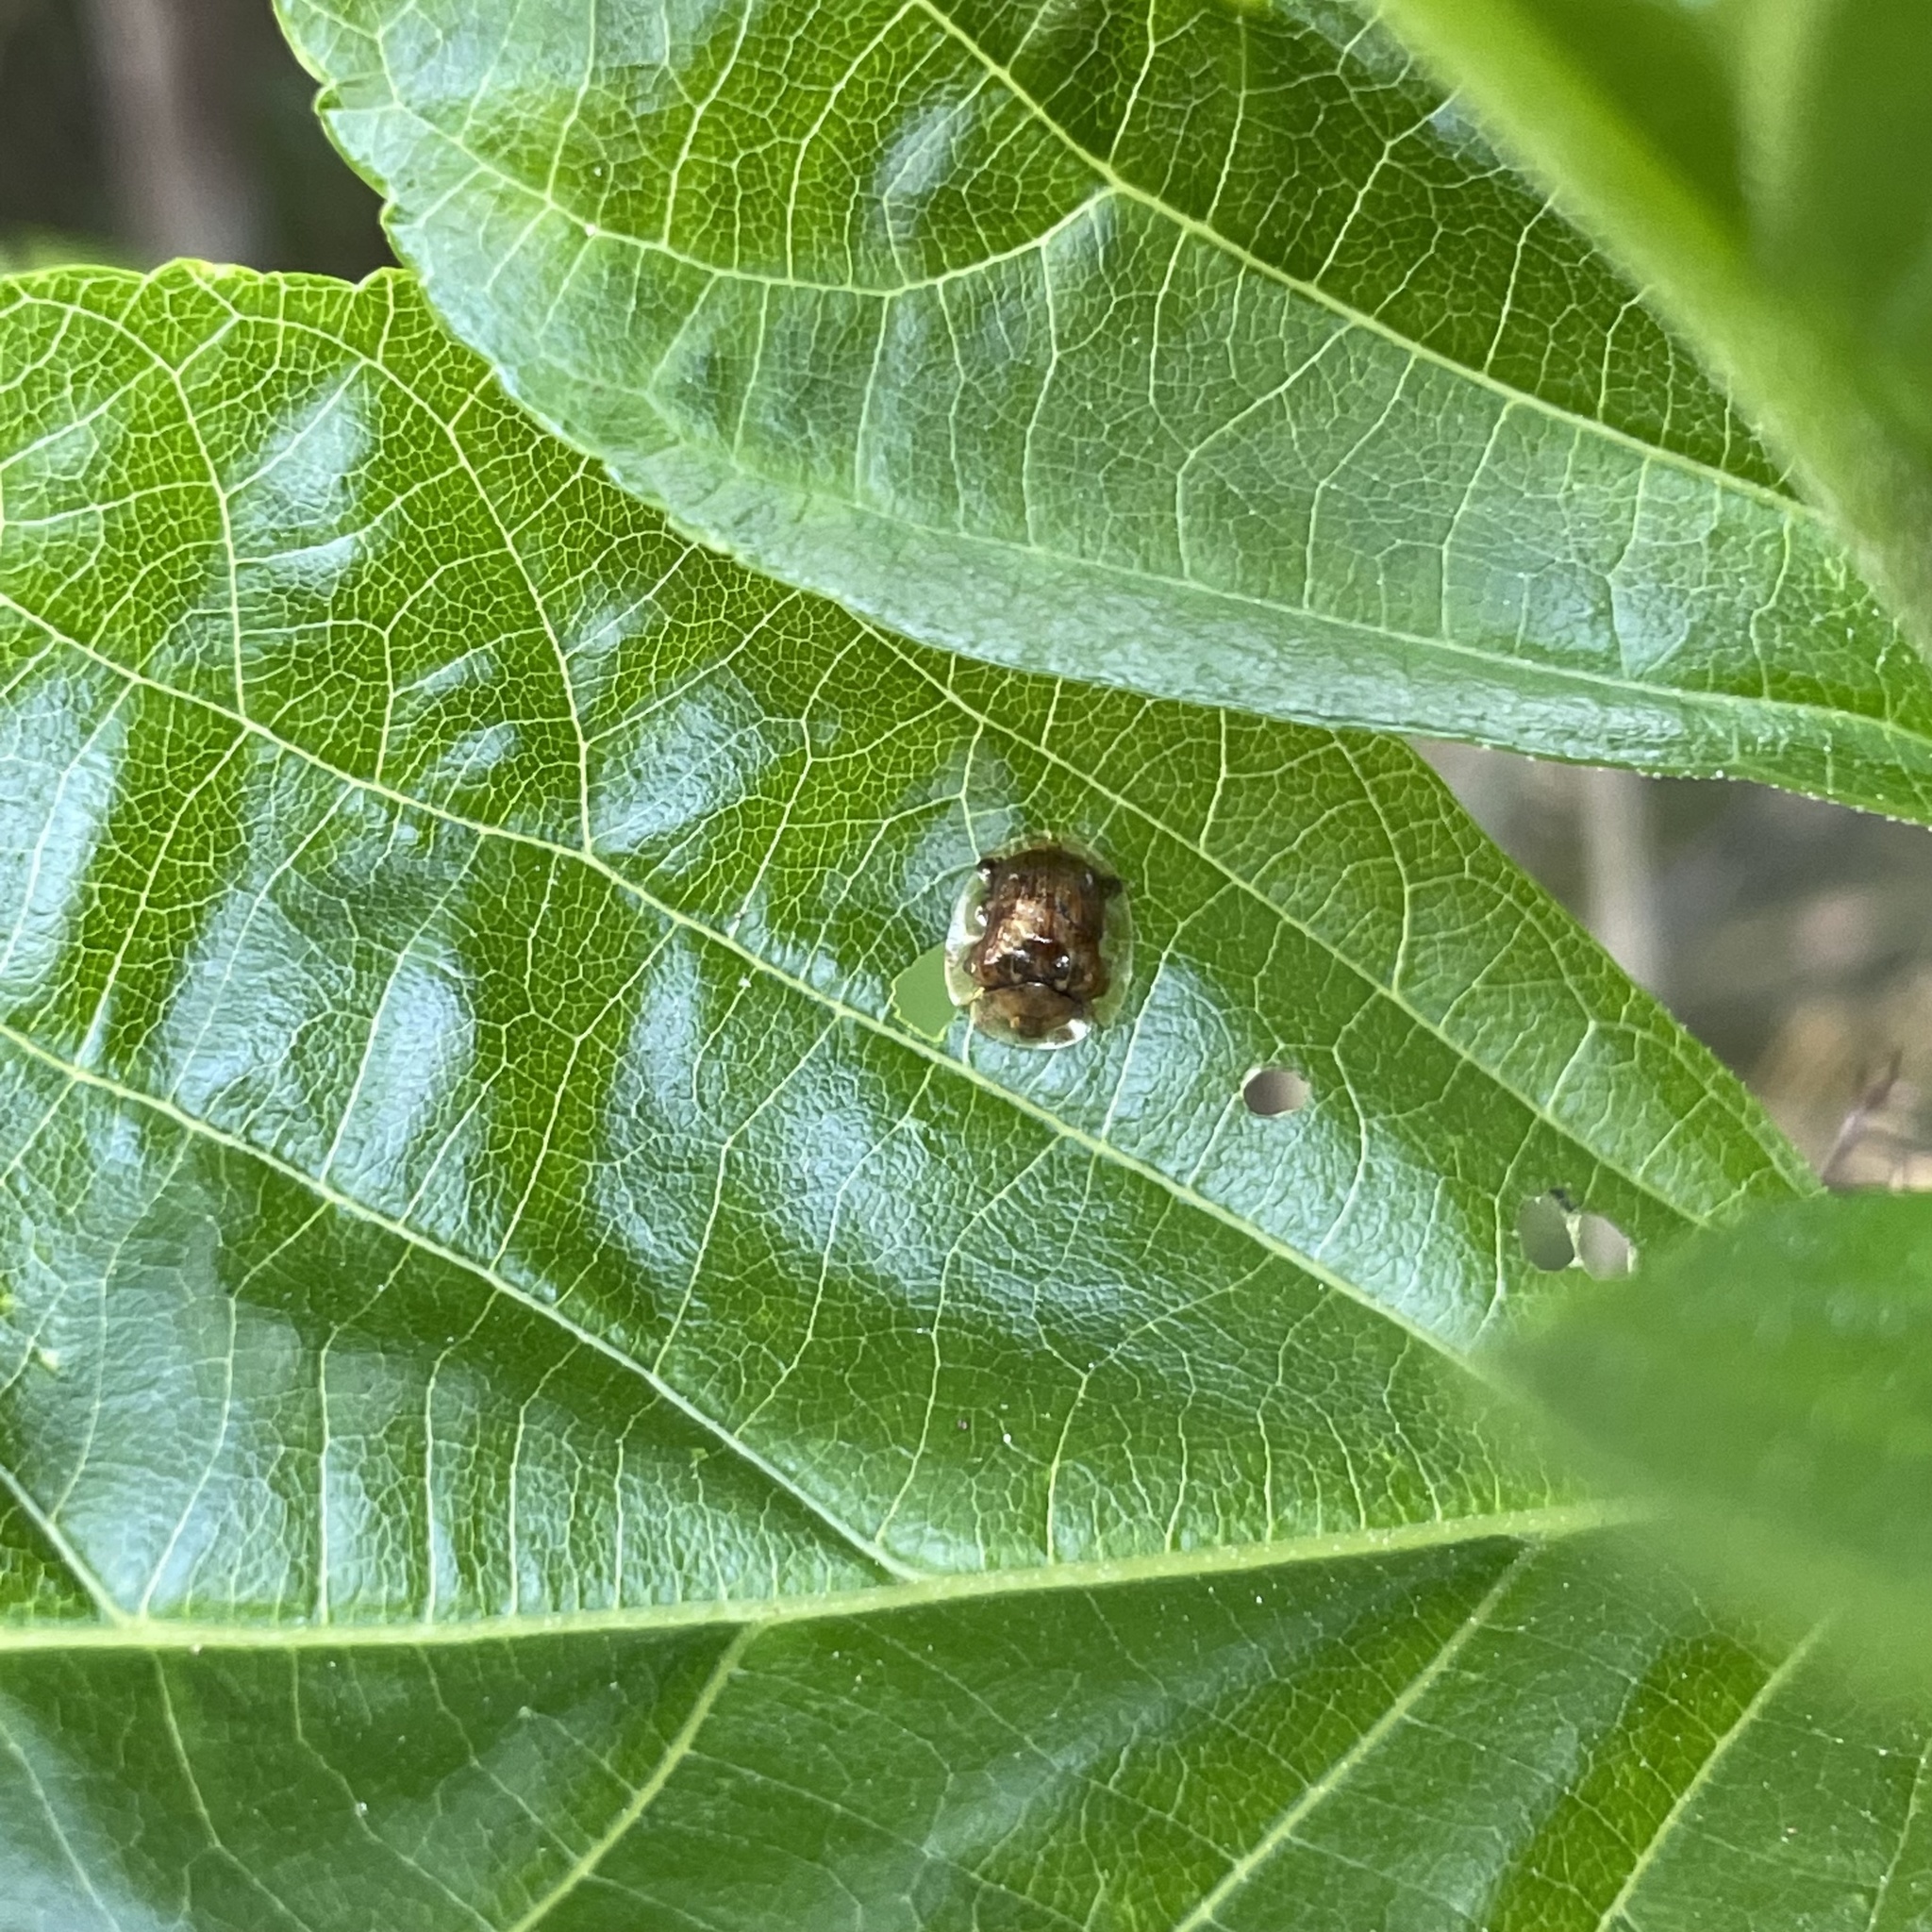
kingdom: Animalia
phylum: Arthropoda
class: Insecta
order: Coleoptera
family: Chrysomelidae
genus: Thlaspida
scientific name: Thlaspida biramosa
